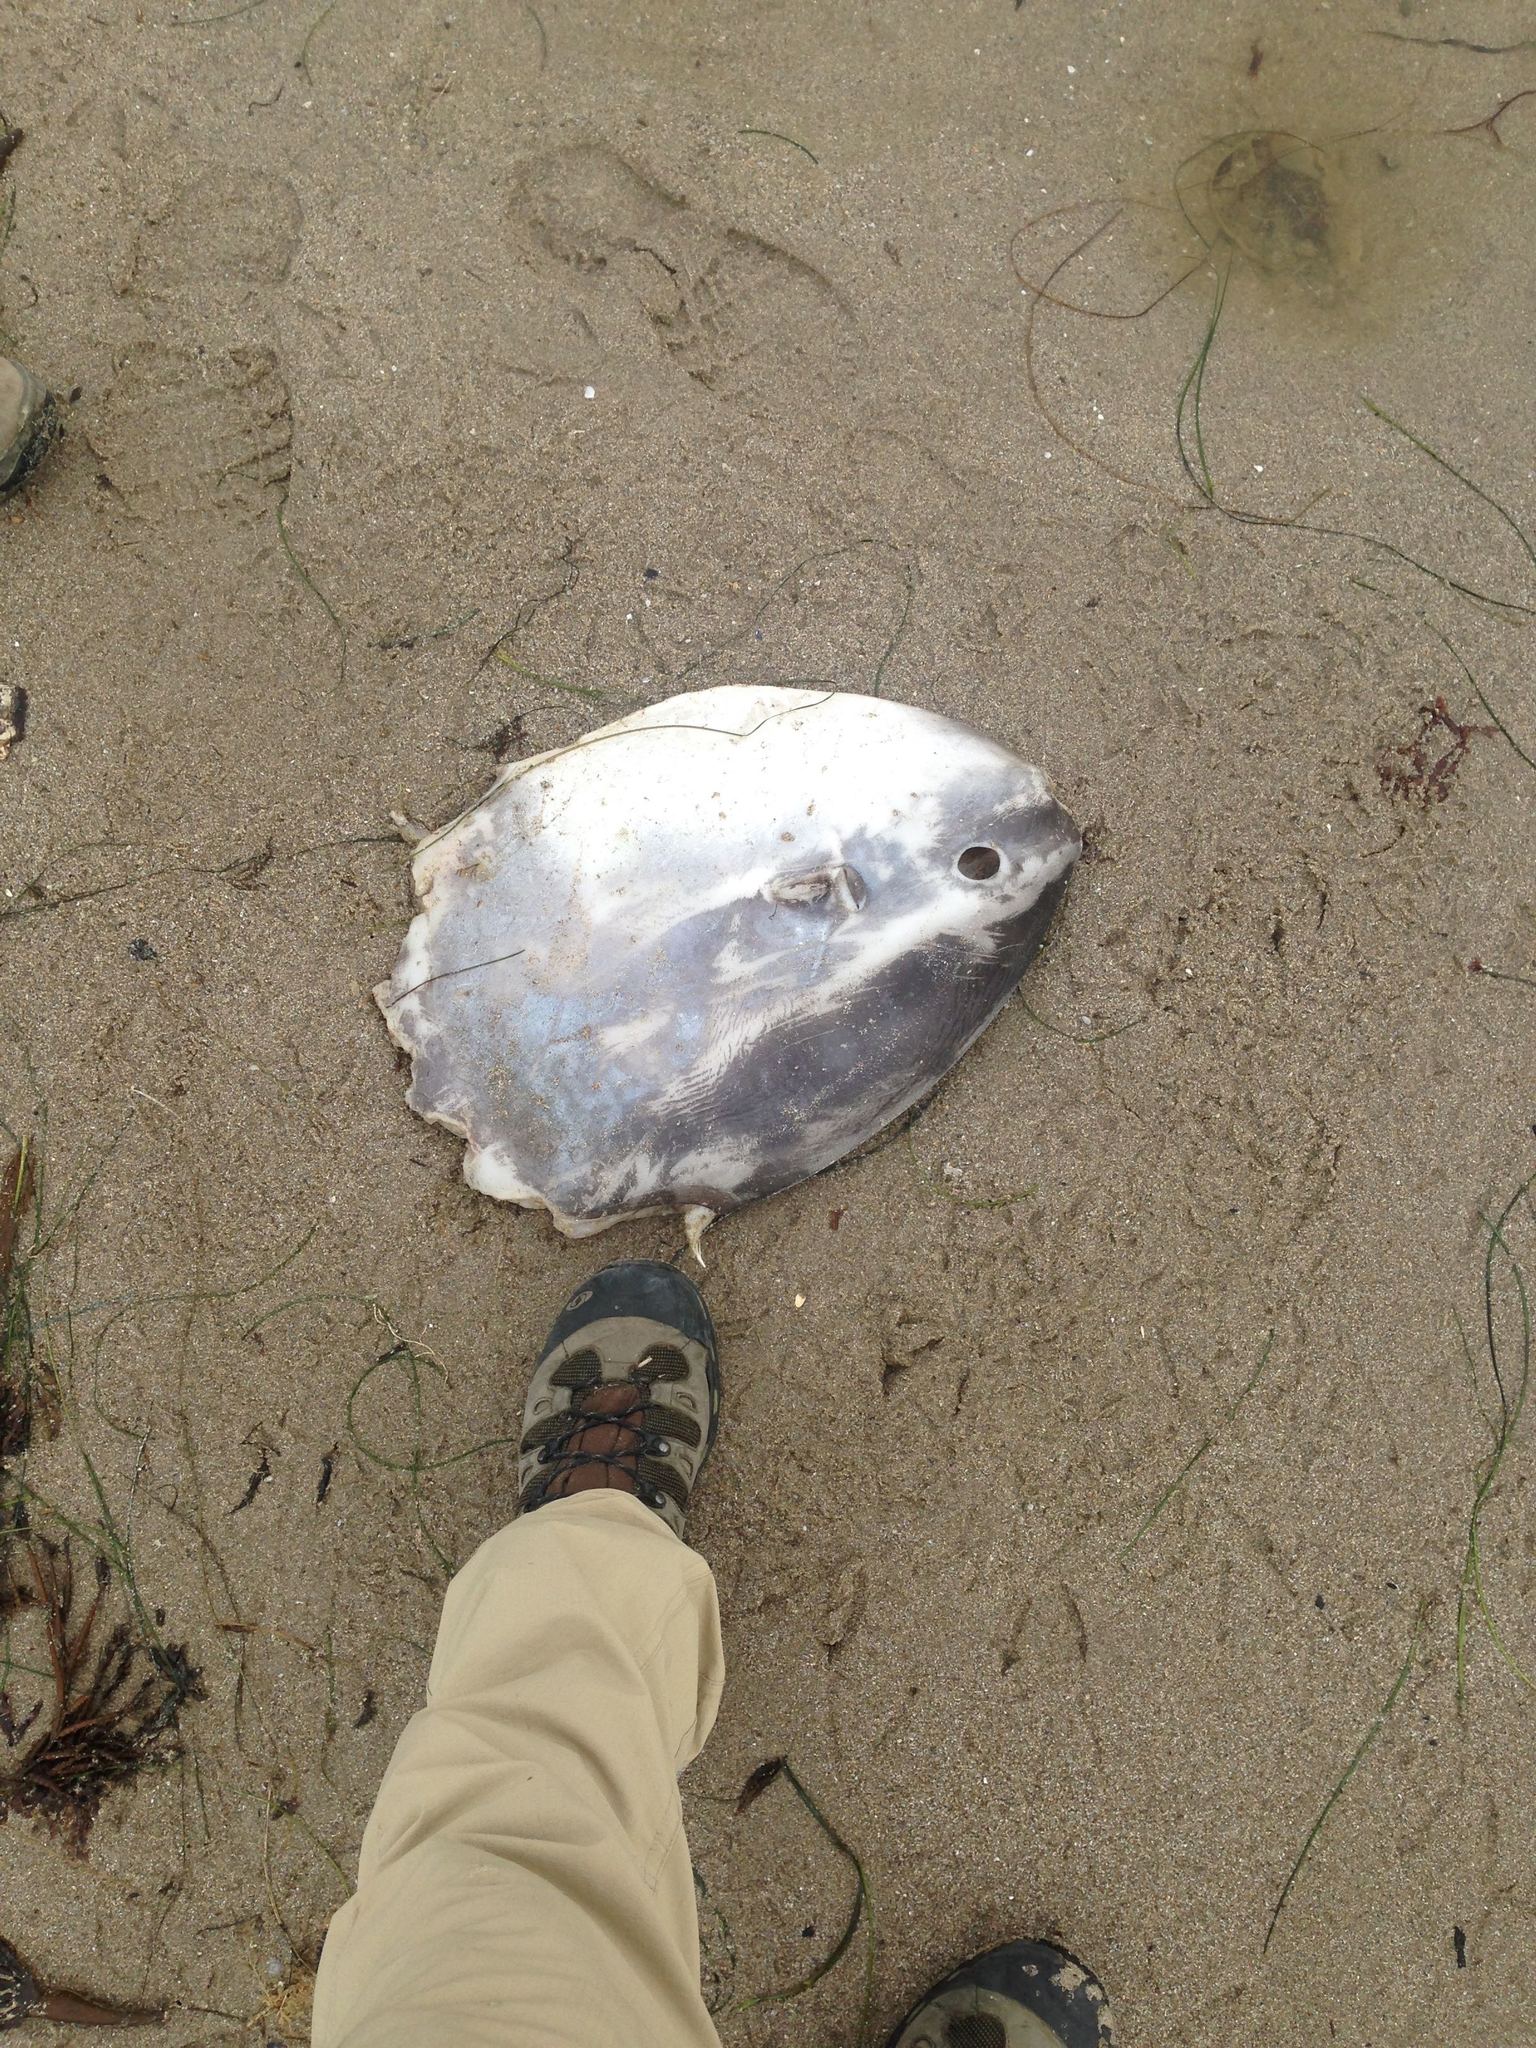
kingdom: Animalia
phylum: Chordata
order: Tetraodontiformes
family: Molidae
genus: Mola
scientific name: Mola mola
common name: Ocean sunfish
